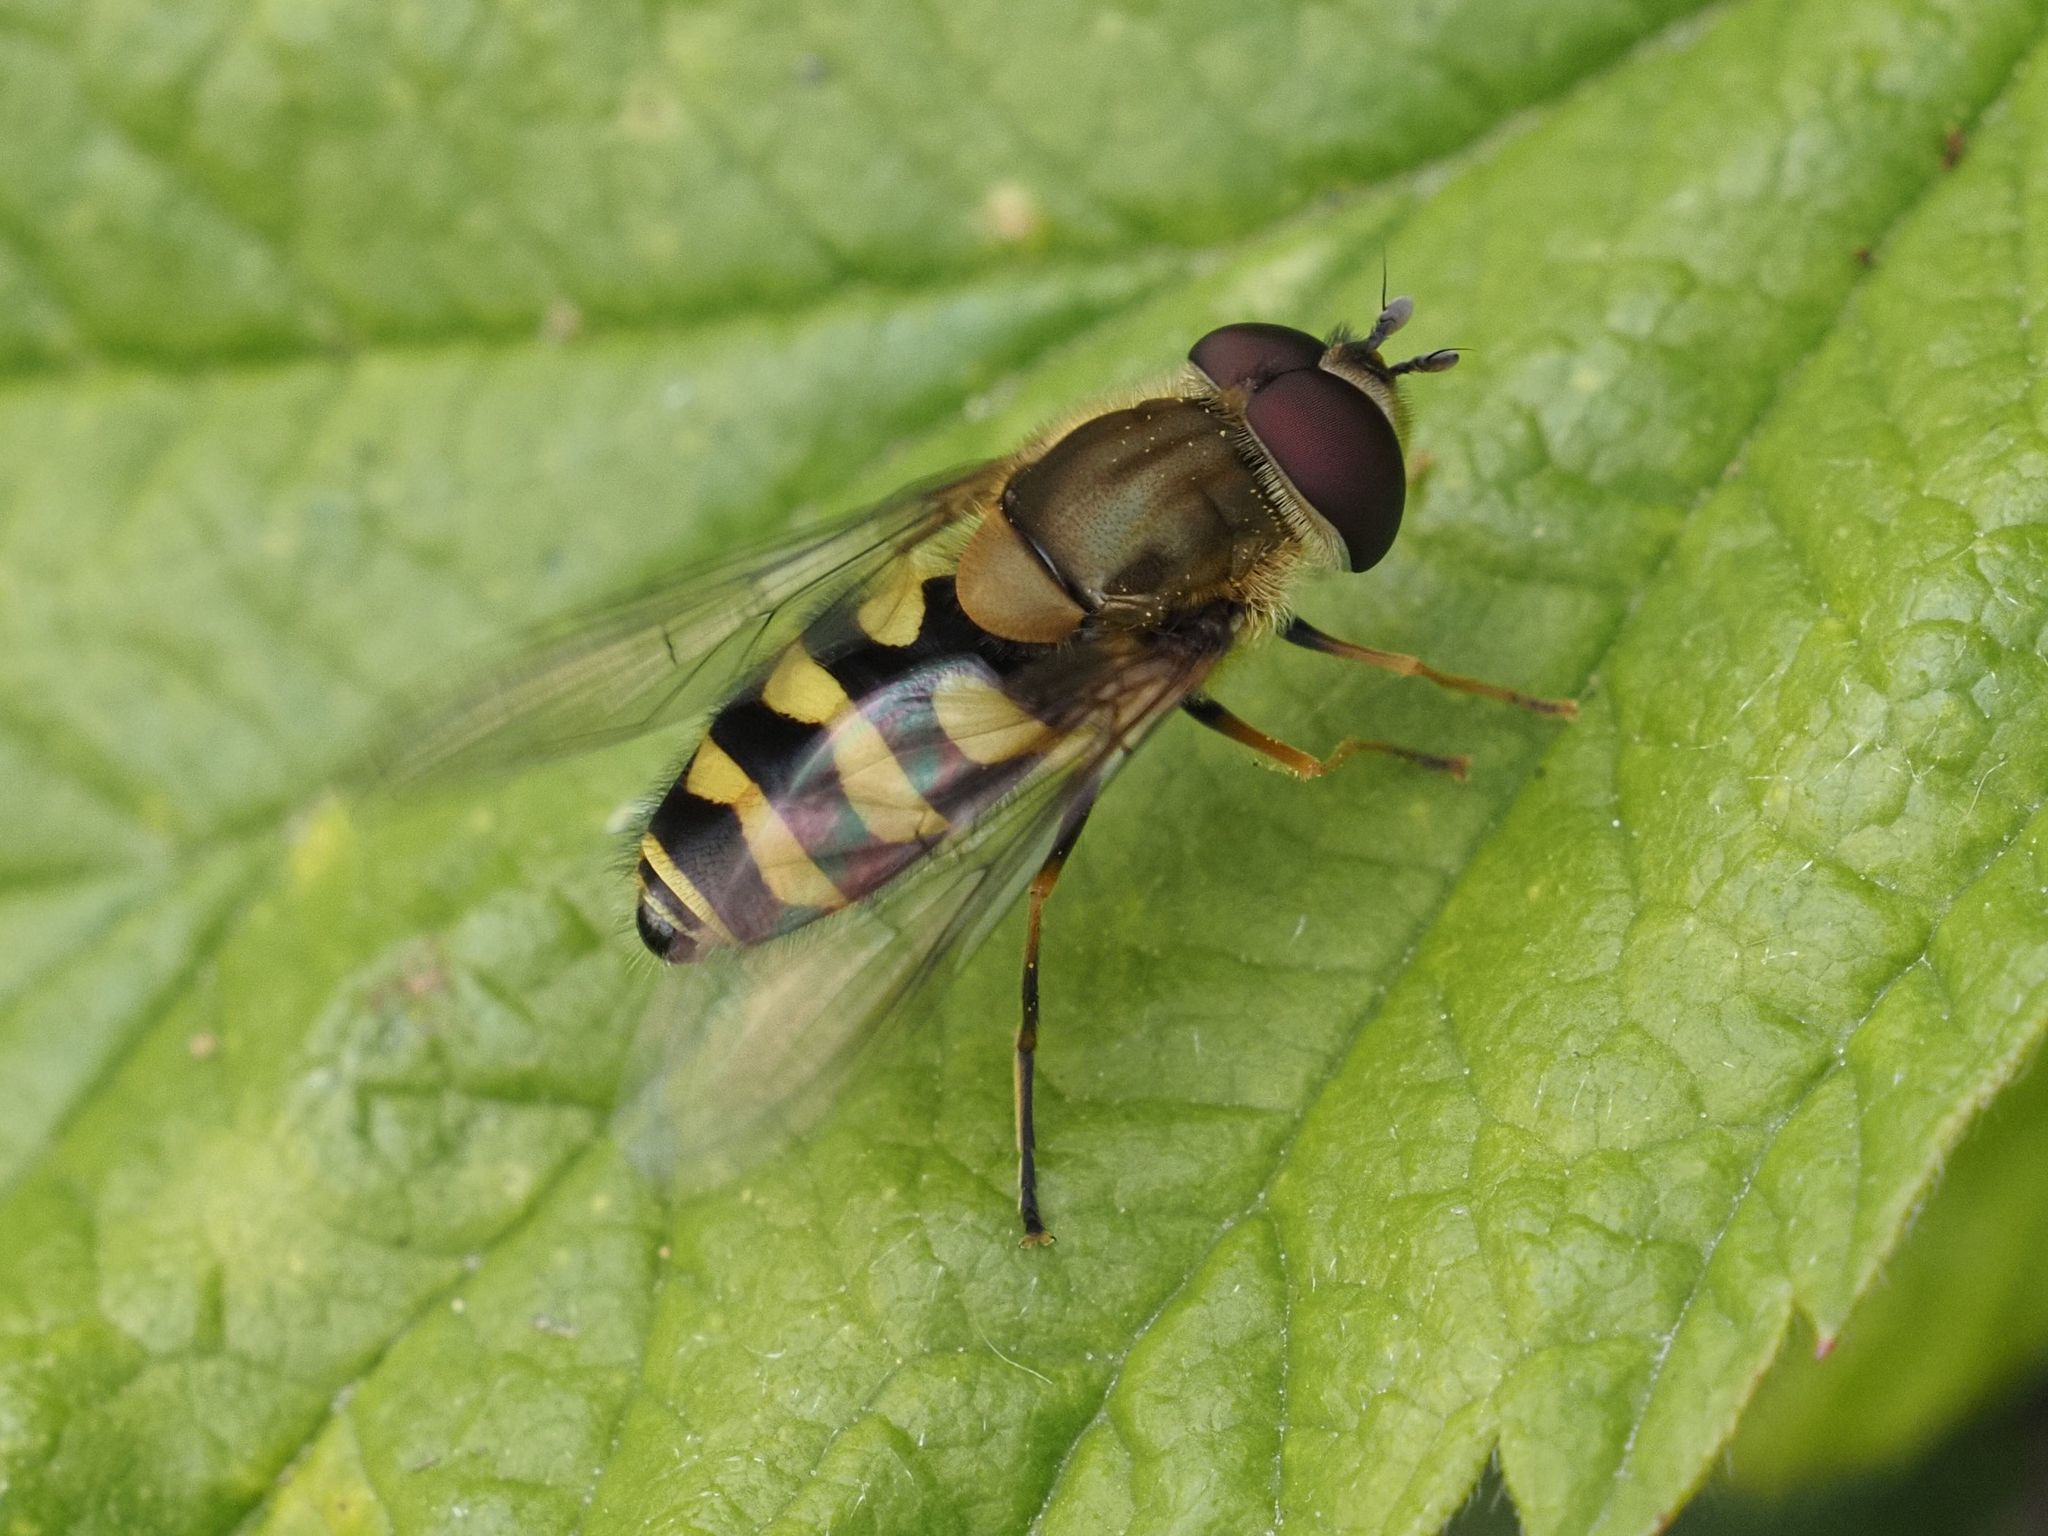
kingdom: Animalia
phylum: Arthropoda
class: Insecta
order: Diptera
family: Syrphidae
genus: Syrphus
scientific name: Syrphus
